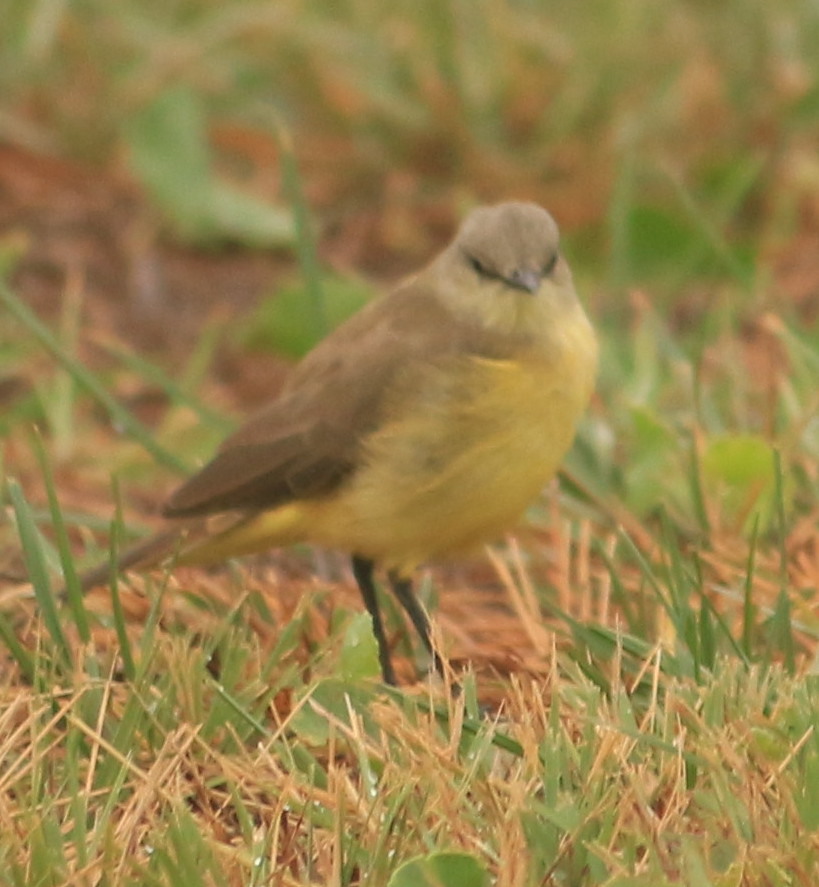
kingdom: Animalia
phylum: Chordata
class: Aves
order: Passeriformes
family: Tyrannidae
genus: Machetornis
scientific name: Machetornis rixosa
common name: Cattle tyrant
